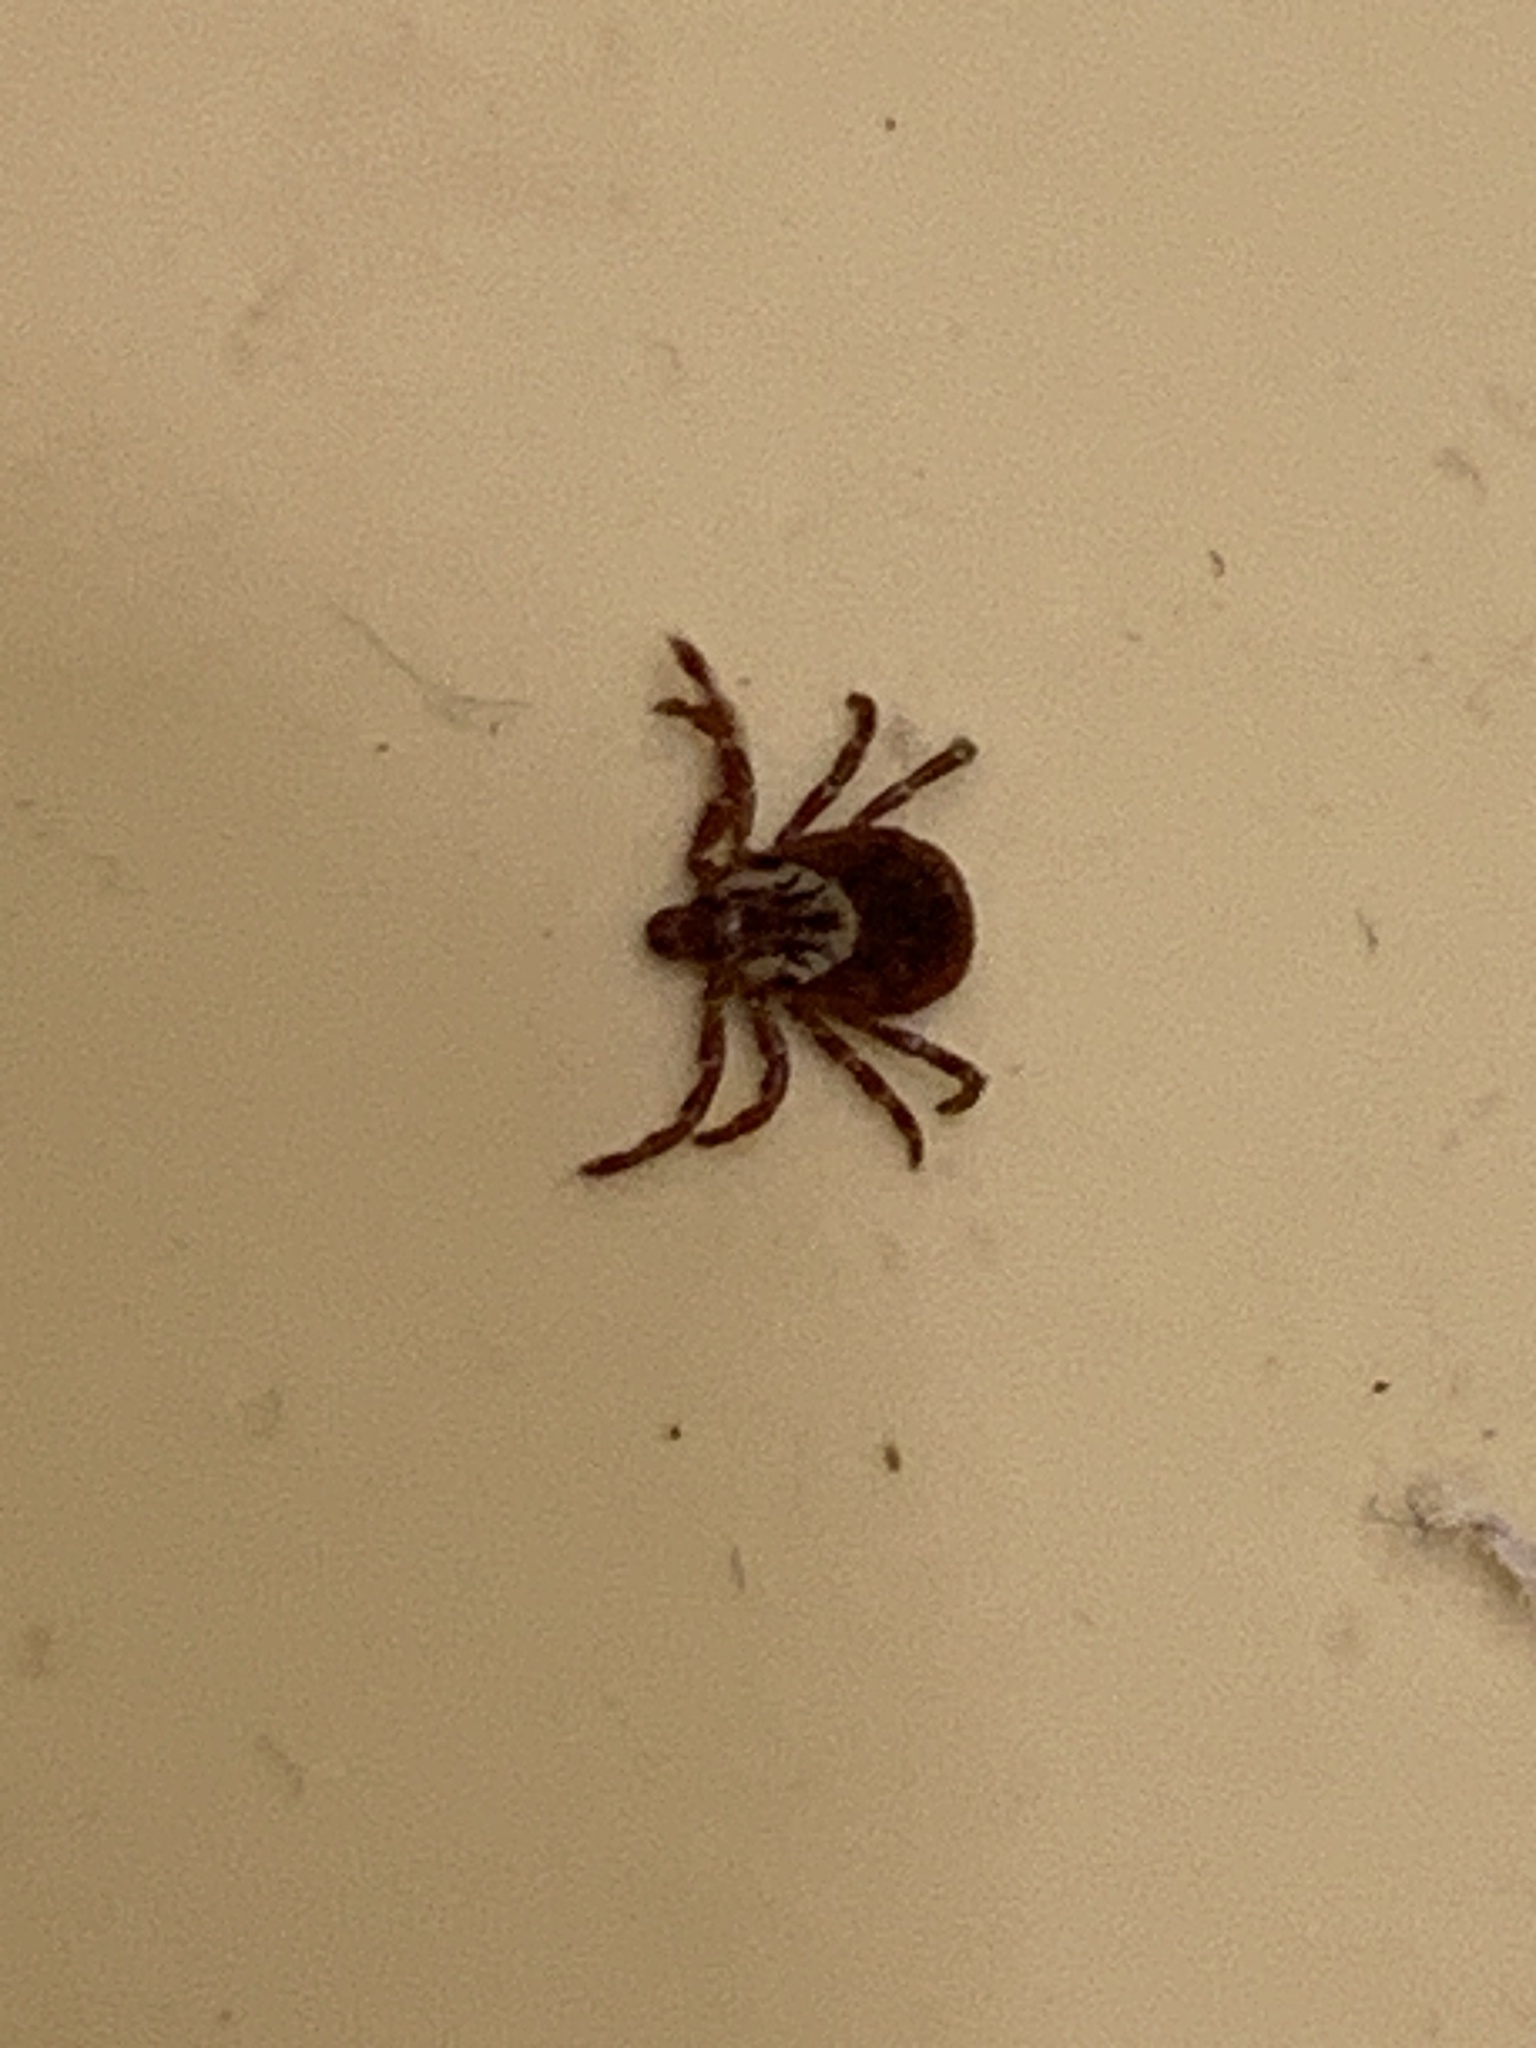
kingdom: Animalia
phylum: Arthropoda
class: Arachnida
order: Ixodida
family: Ixodidae
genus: Dermacentor
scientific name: Dermacentor variabilis
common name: American dog tick
